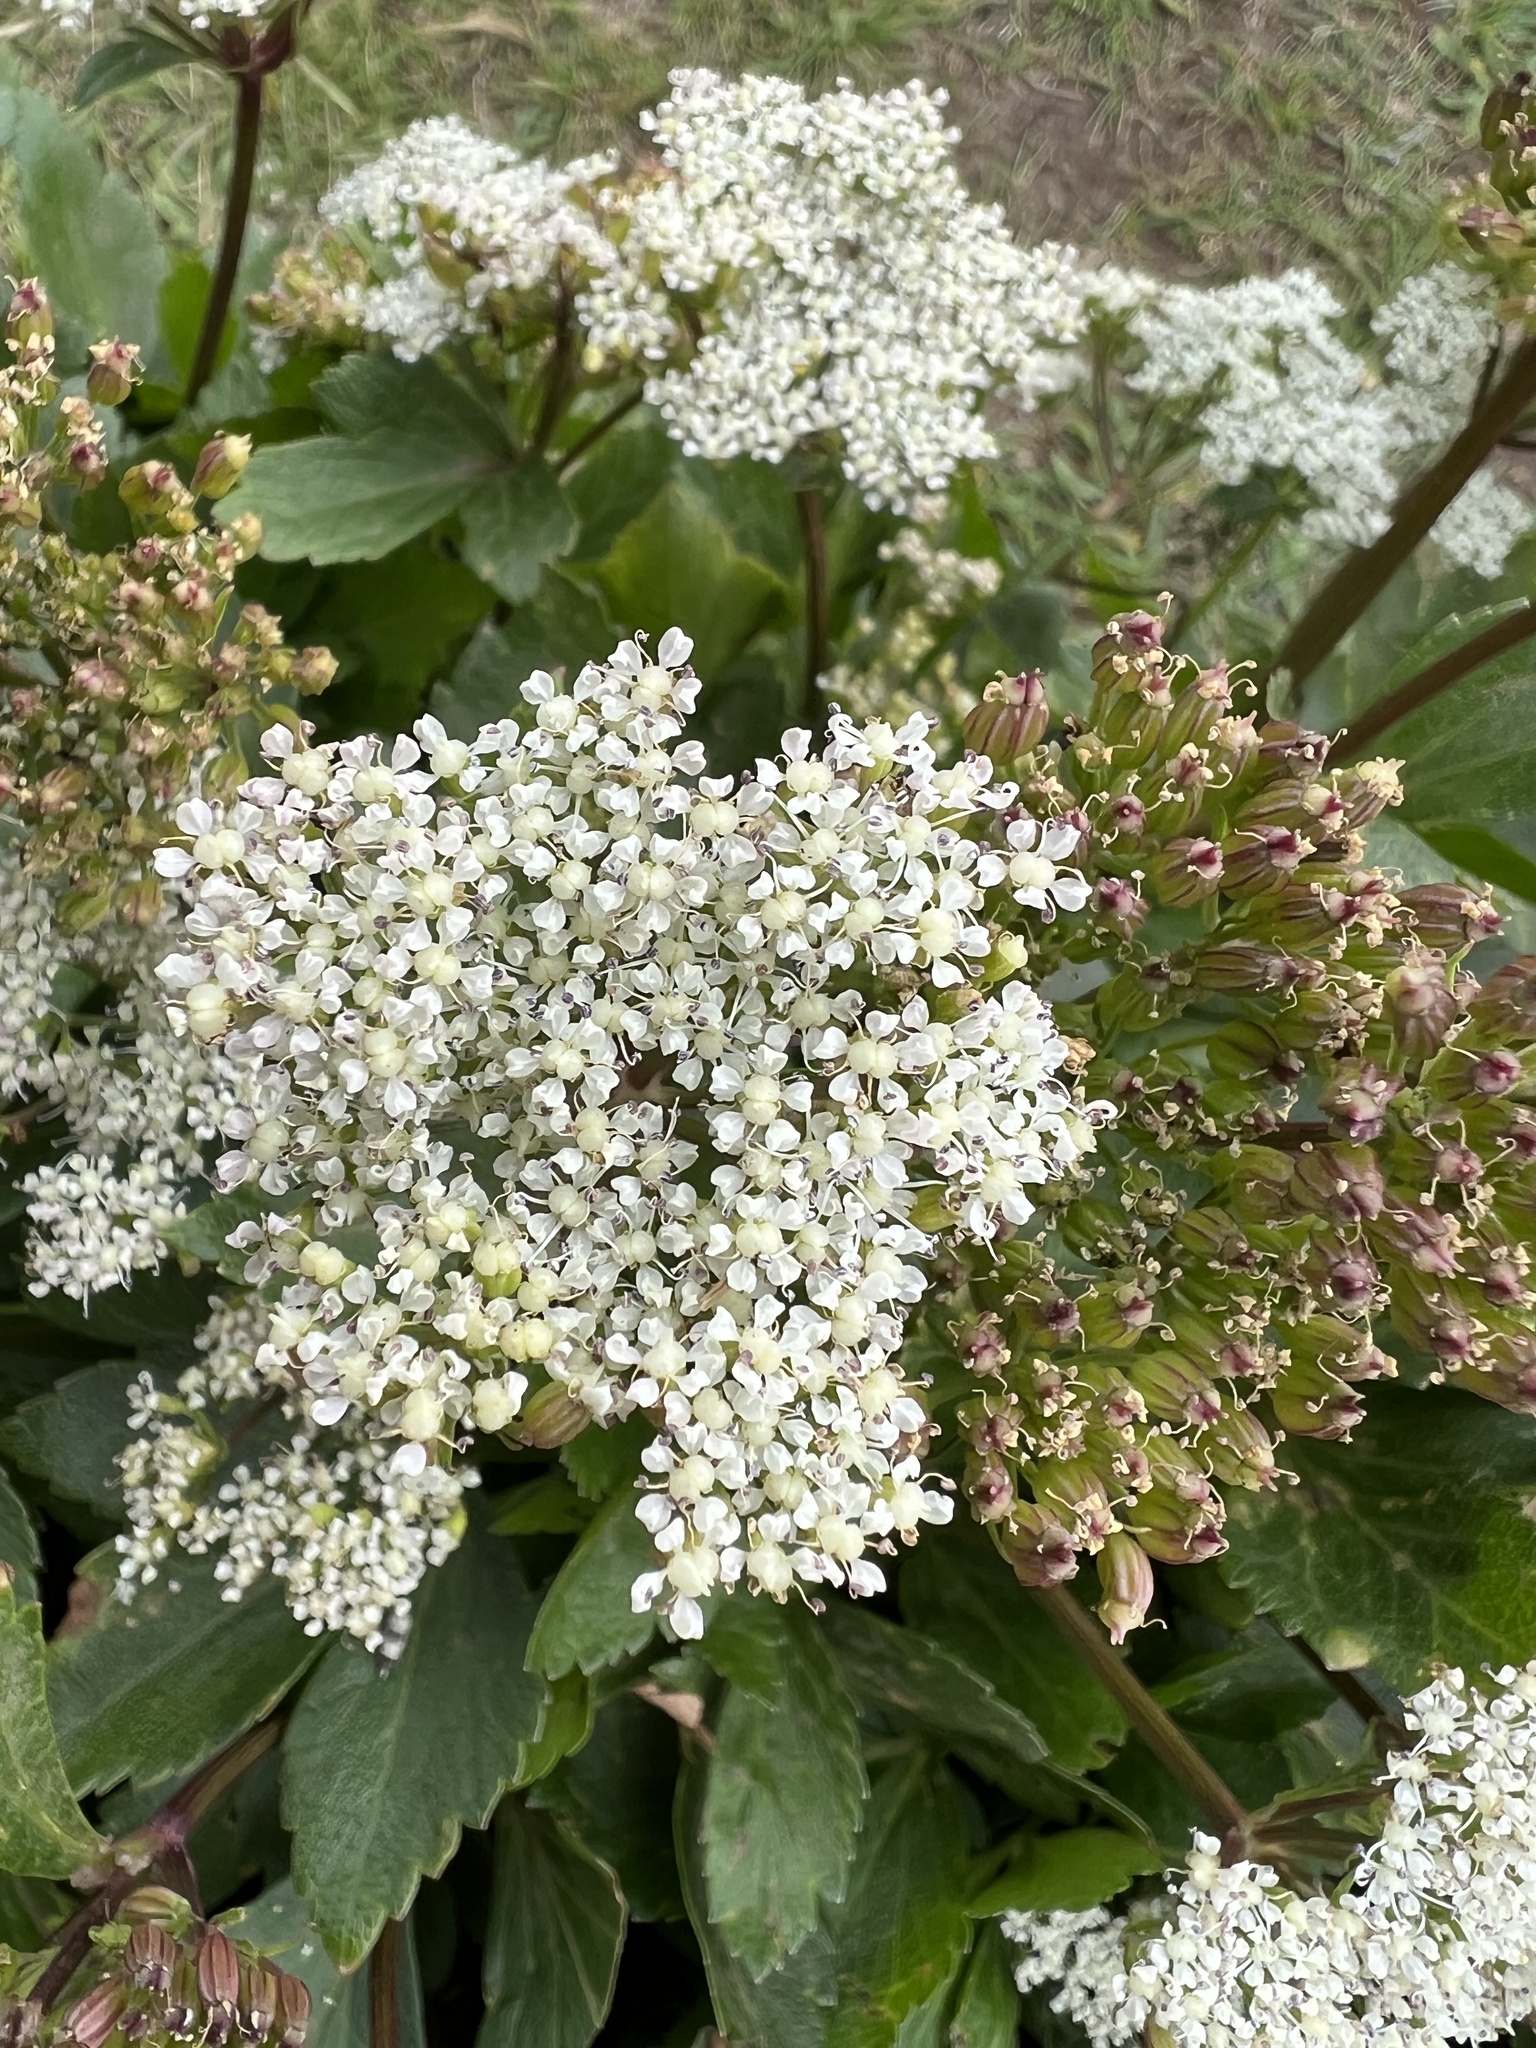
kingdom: Plantae
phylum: Tracheophyta
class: Magnoliopsida
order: Apiales
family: Apiaceae
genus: Ligusticum
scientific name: Ligusticum scothicum
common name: Beach lovage
